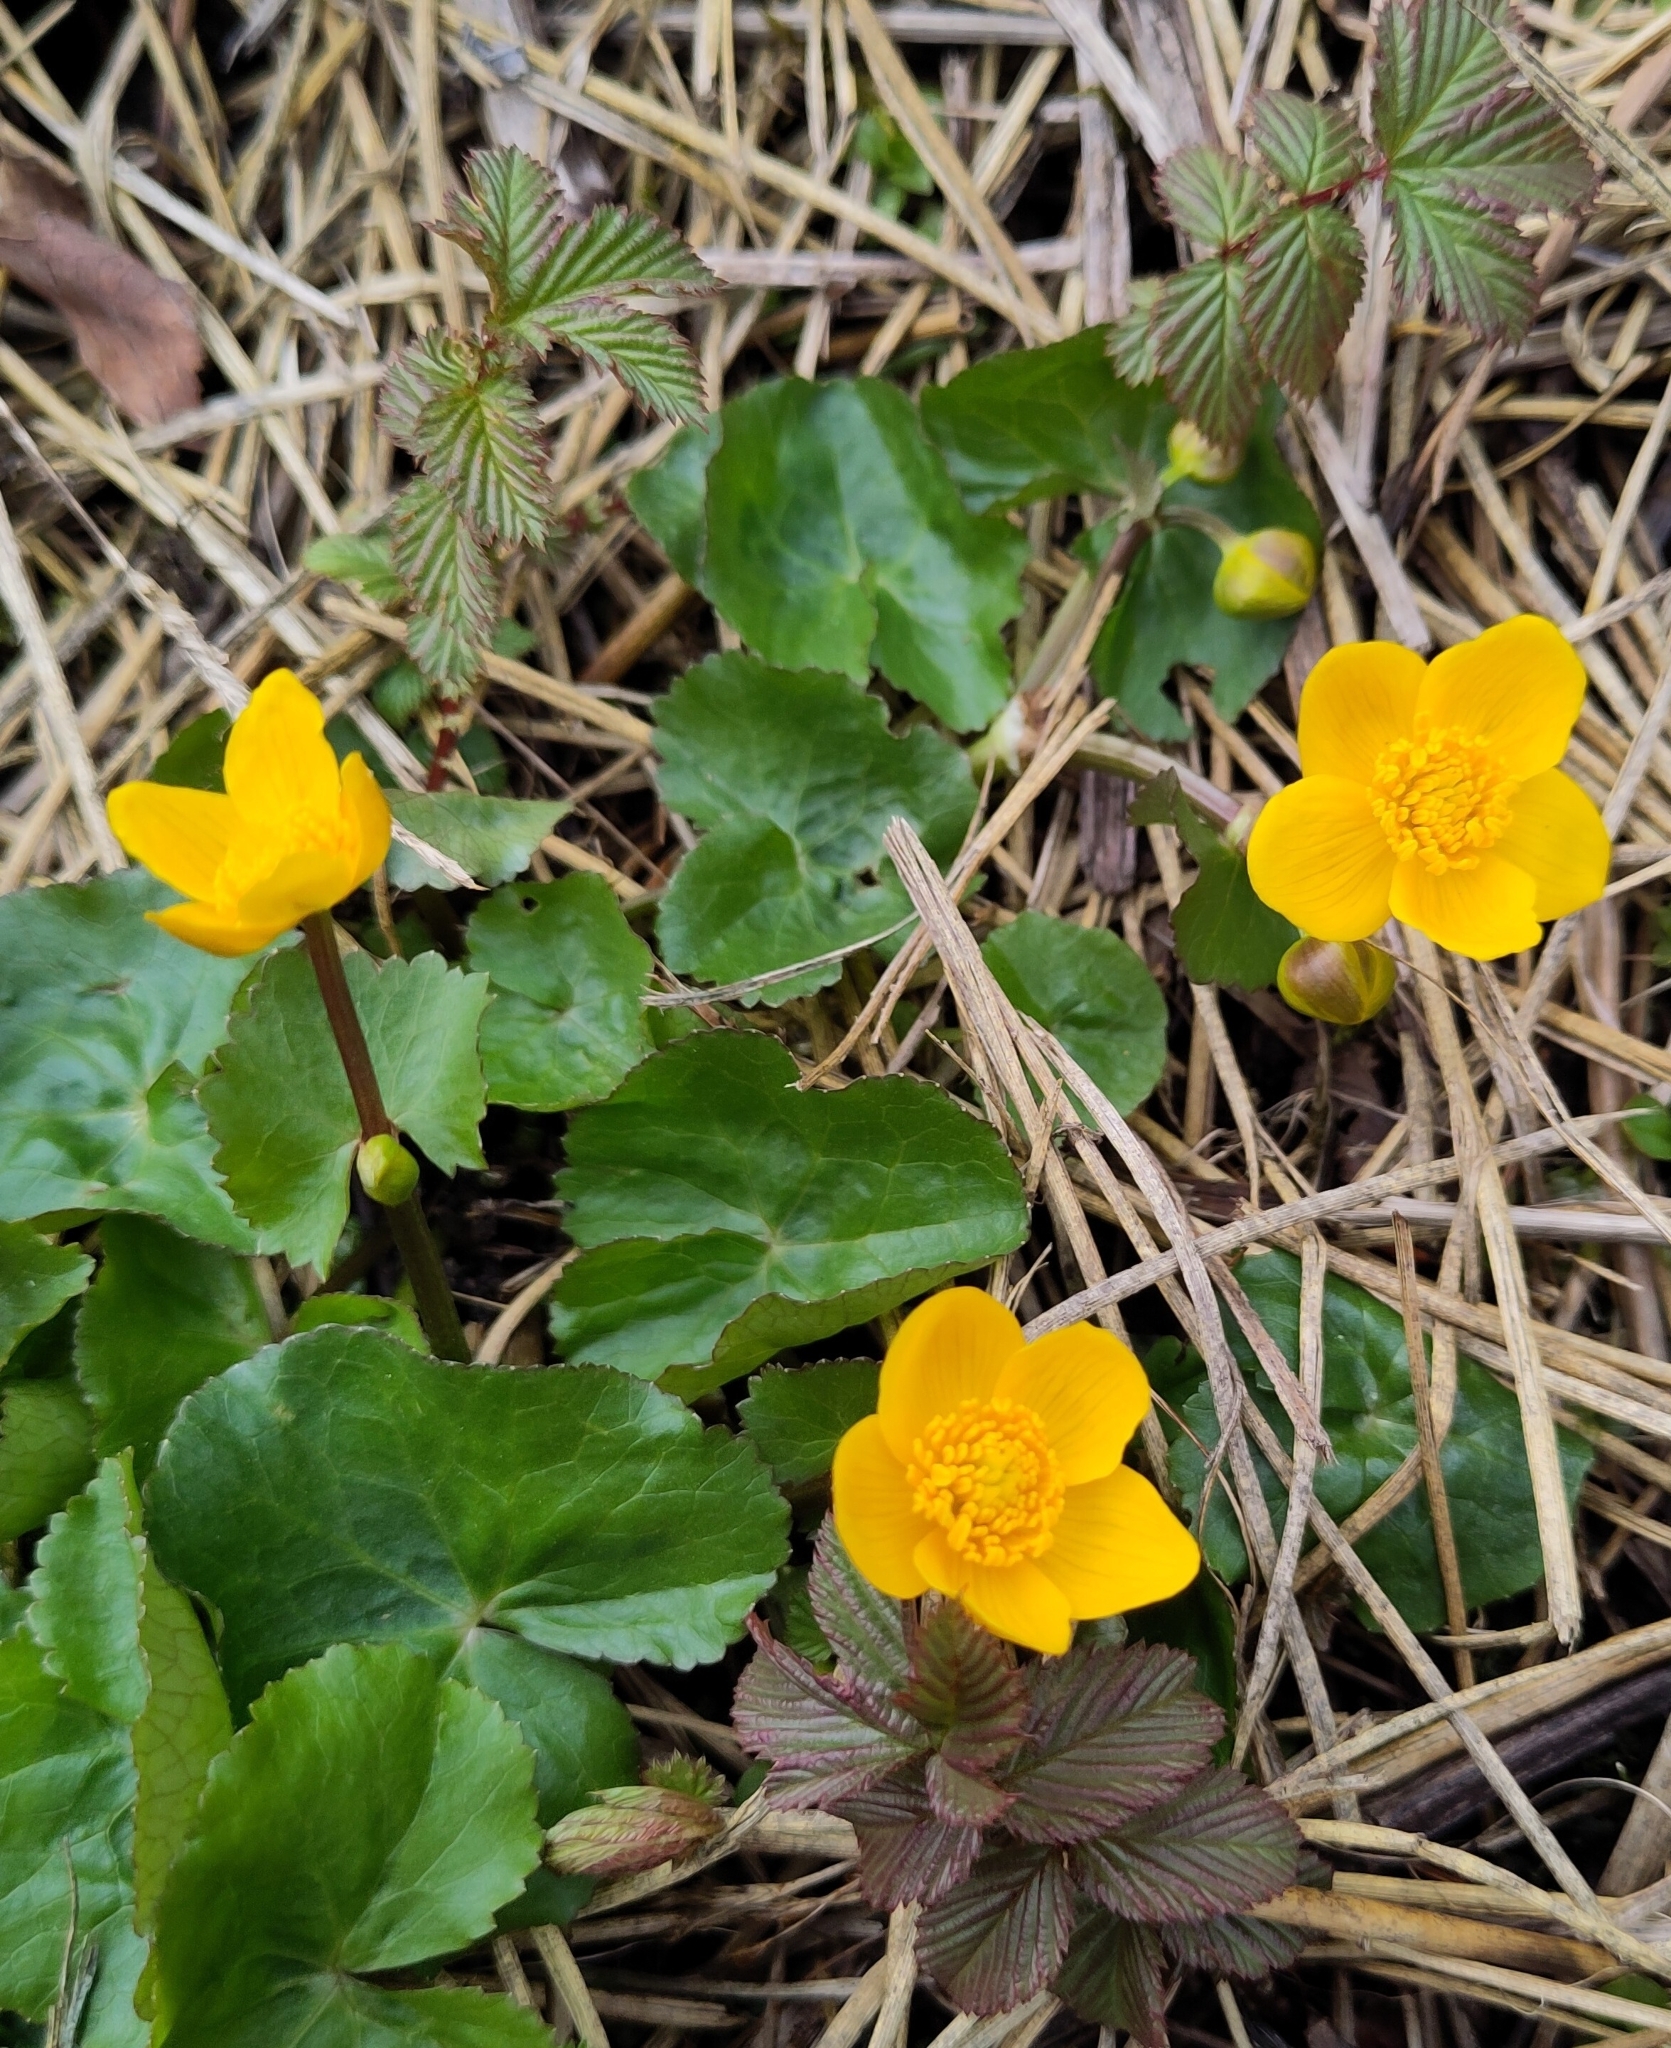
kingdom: Plantae
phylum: Tracheophyta
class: Magnoliopsida
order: Ranunculales
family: Ranunculaceae
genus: Caltha
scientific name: Caltha palustris
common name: Marsh marigold
